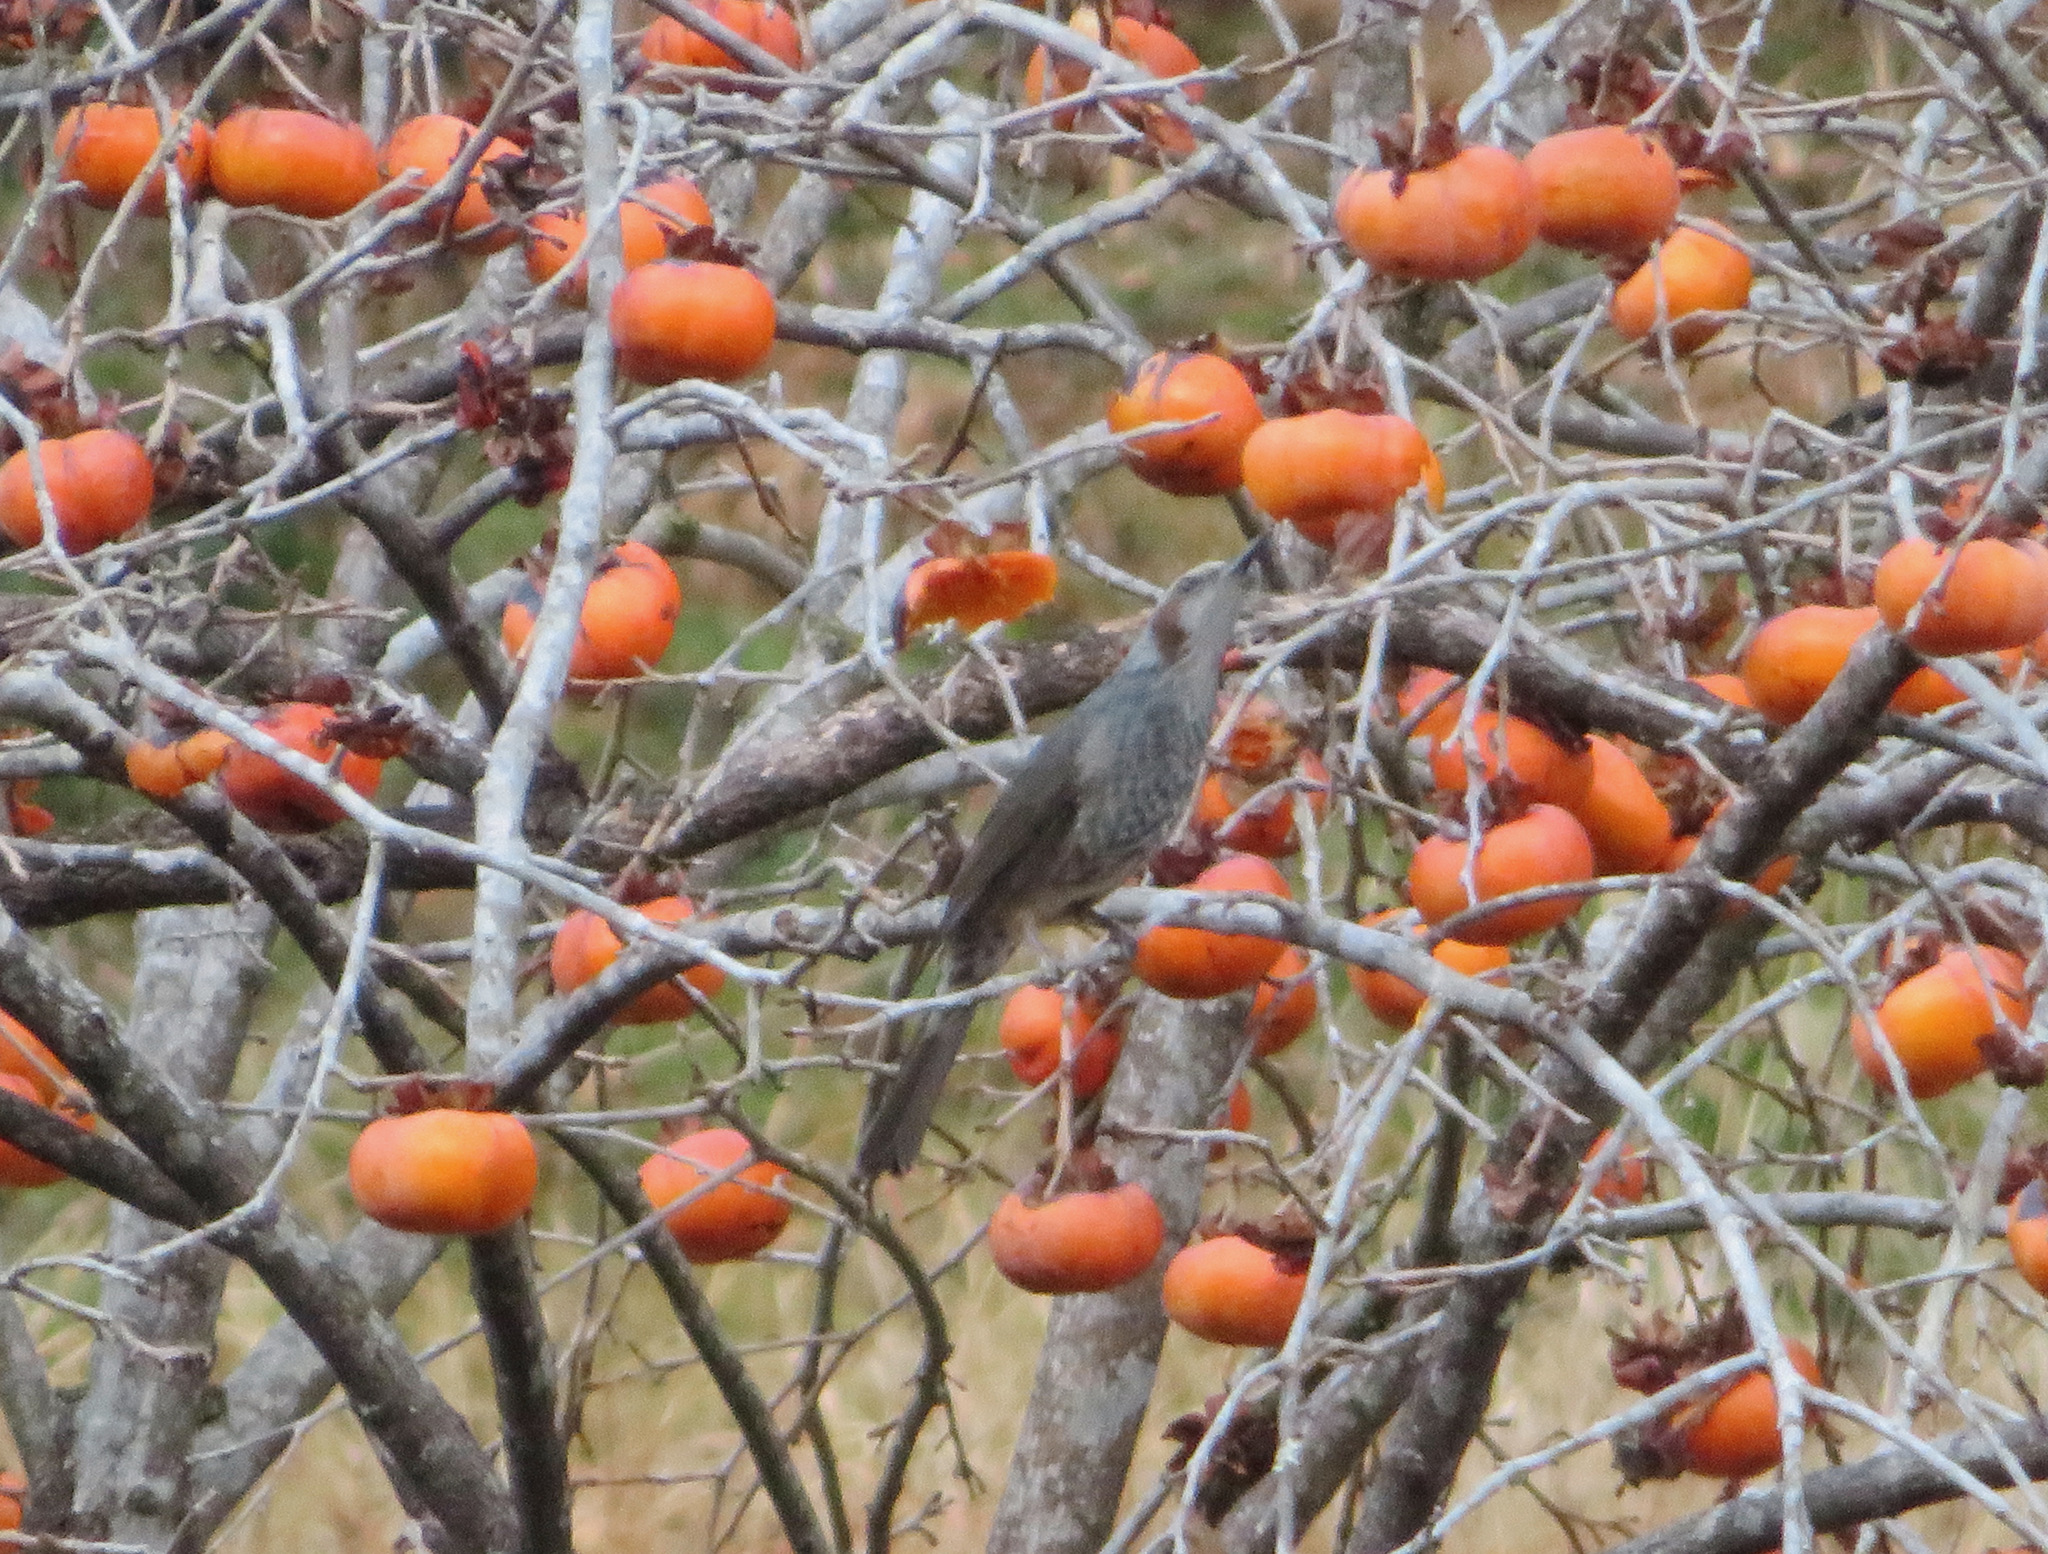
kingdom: Animalia
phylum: Chordata
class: Aves
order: Passeriformes
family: Pycnonotidae
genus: Hypsipetes
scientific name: Hypsipetes amaurotis
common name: Brown-eared bulbul
